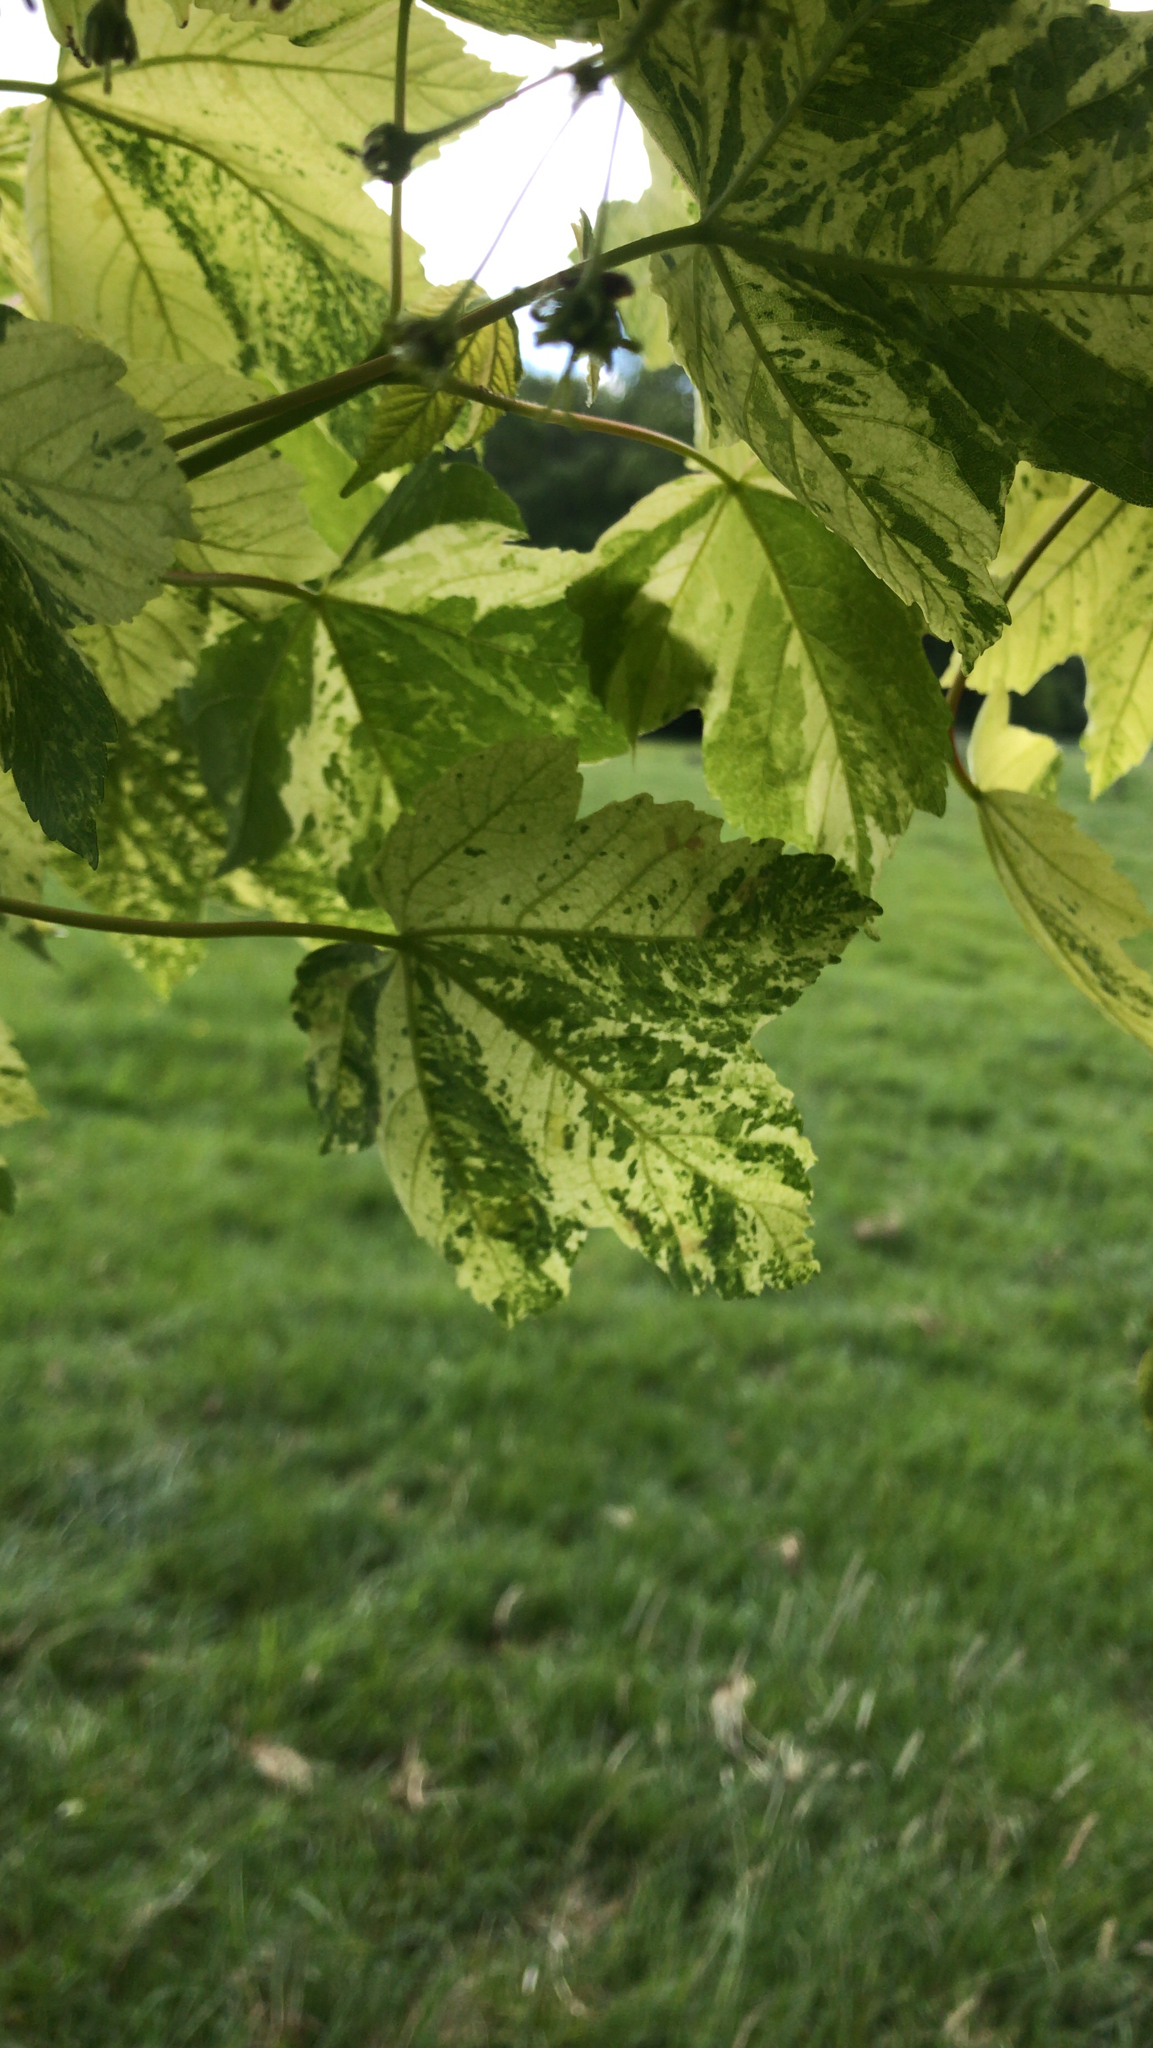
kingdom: Plantae
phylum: Tracheophyta
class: Magnoliopsida
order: Sapindales
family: Sapindaceae
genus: Acer
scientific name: Acer pseudoplatanus
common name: Sycamore
